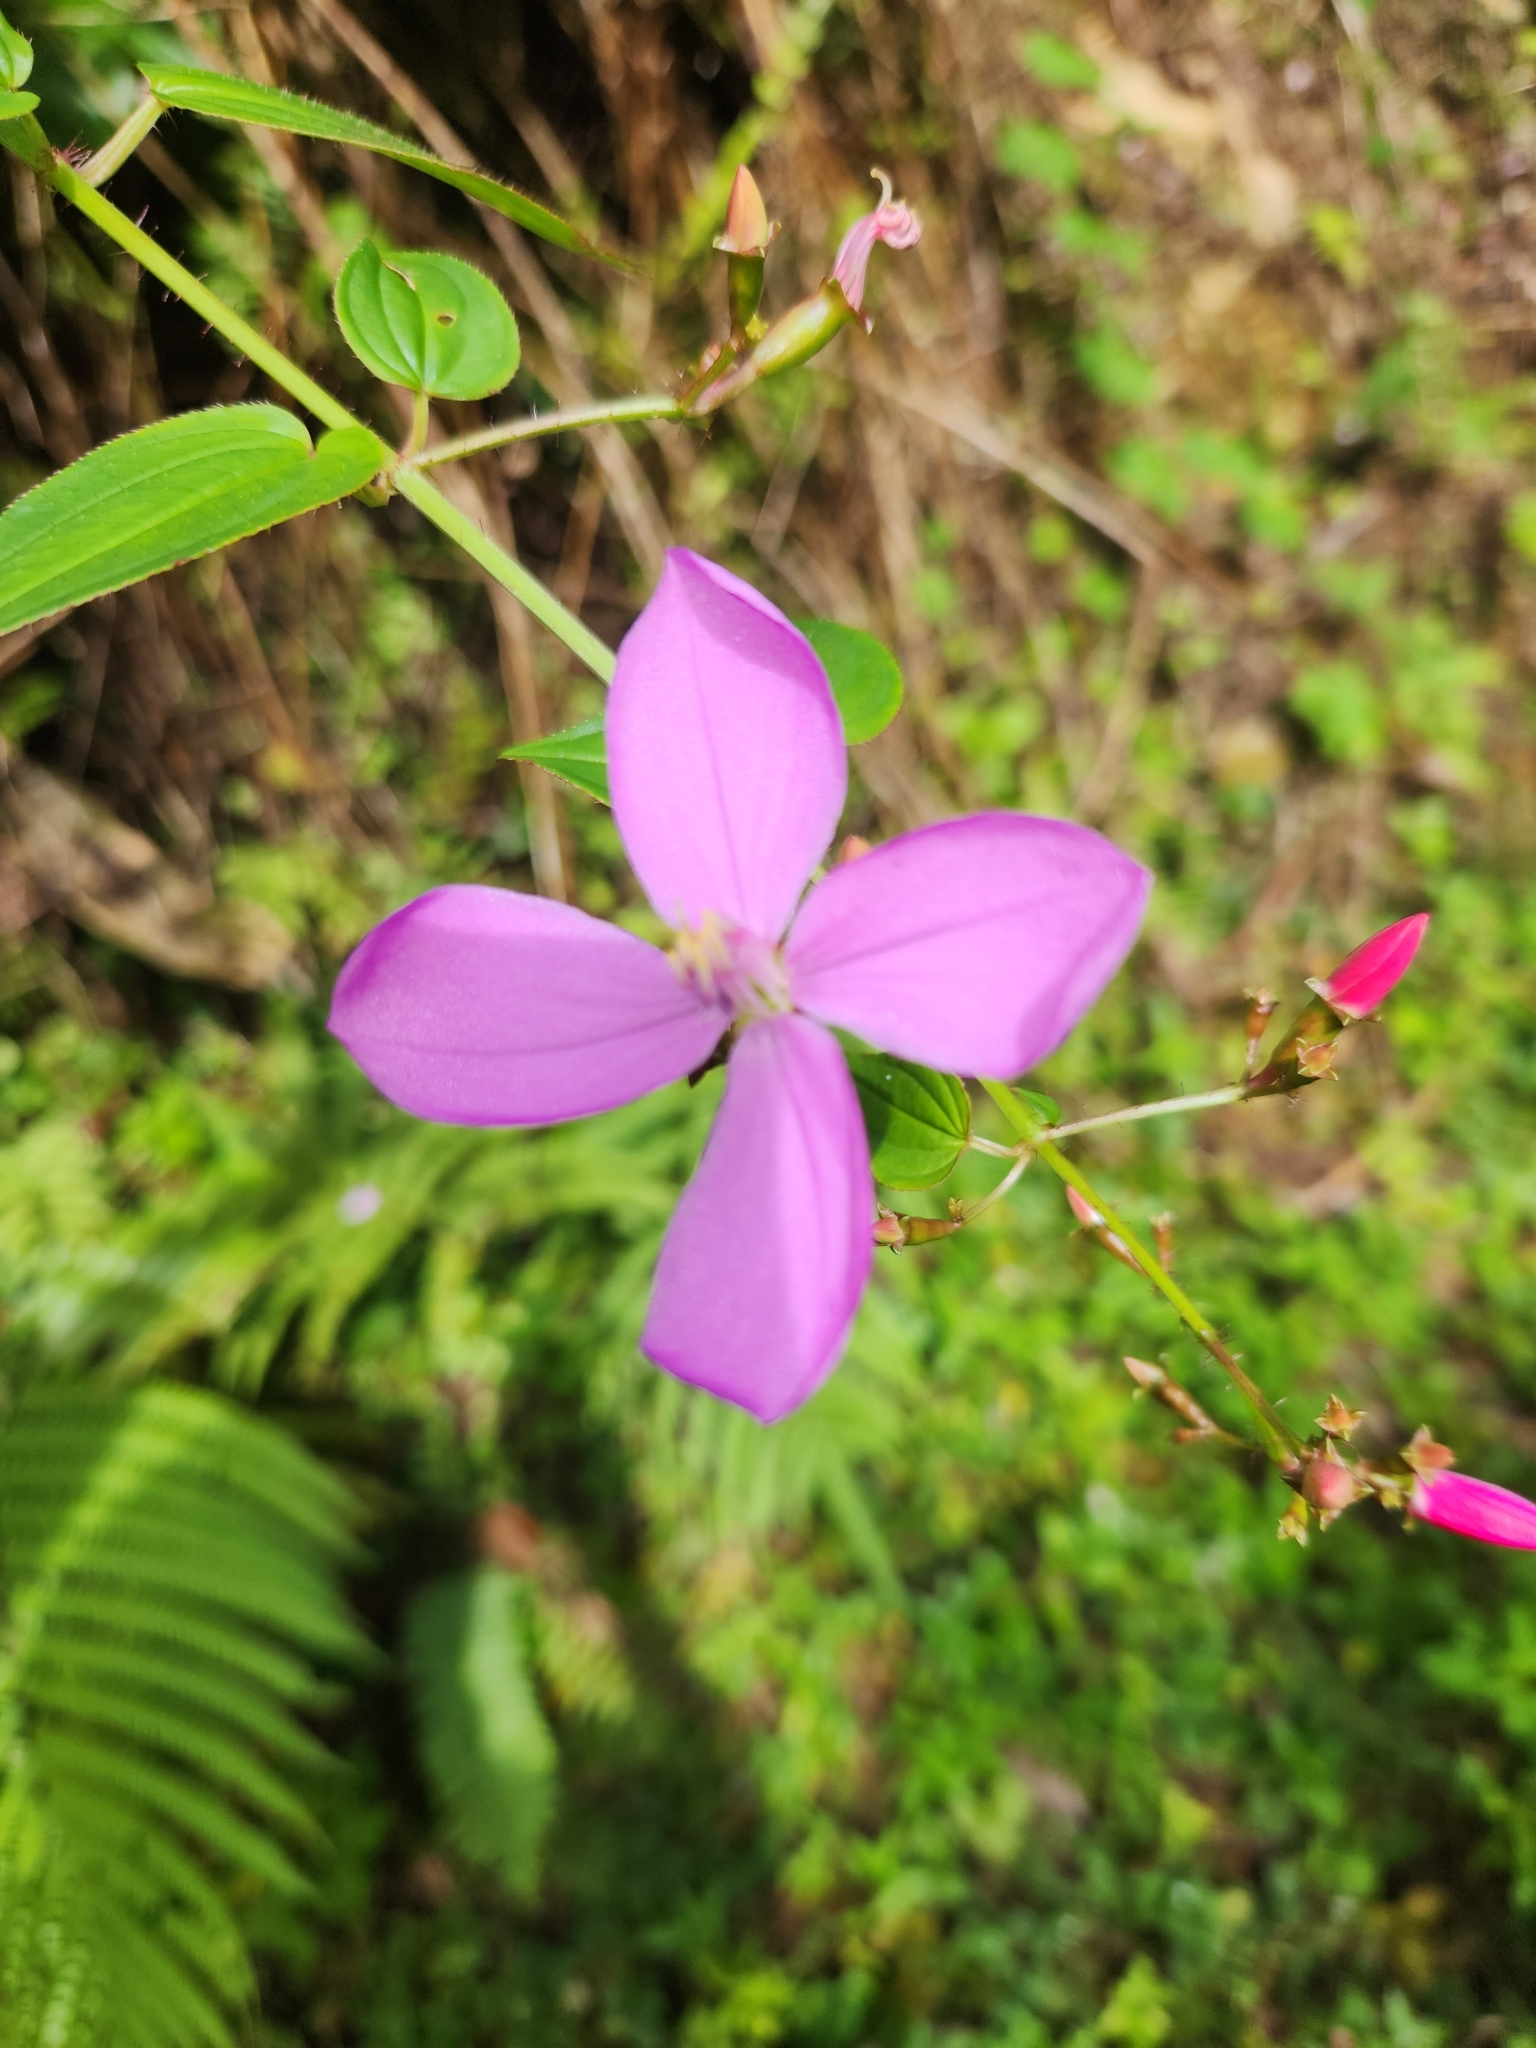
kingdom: Plantae
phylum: Tracheophyta
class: Magnoliopsida
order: Myrtales
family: Melastomataceae
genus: Arthrostemma
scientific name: Arthrostemma ciliatum
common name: Everblooming eavender
